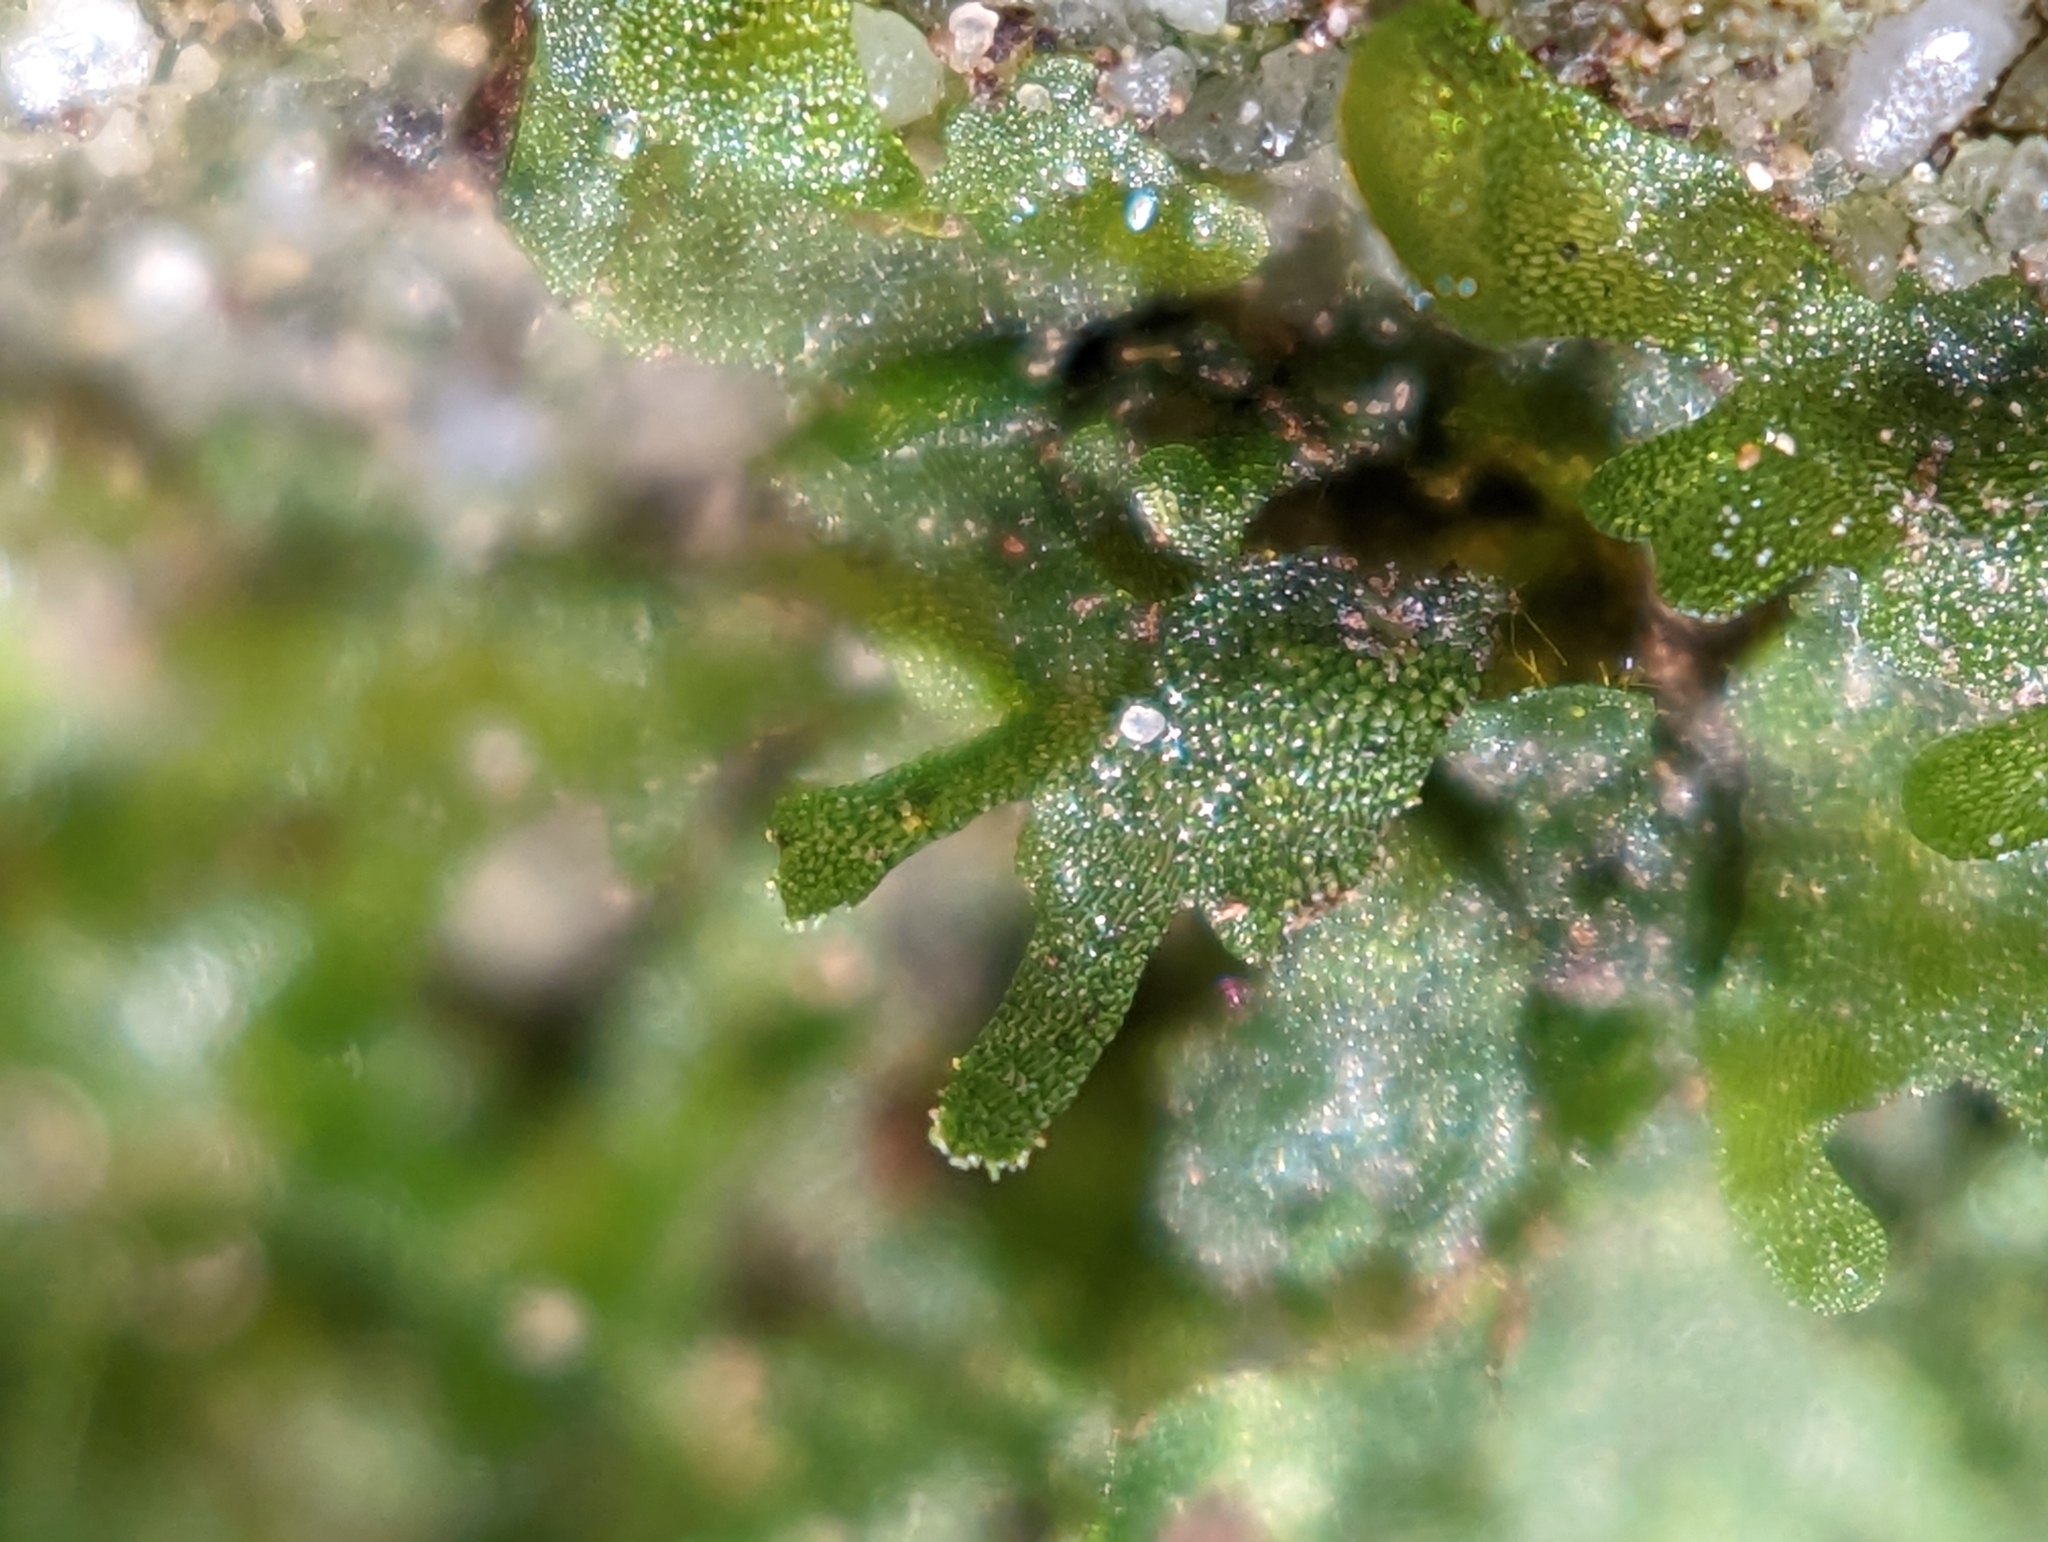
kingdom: Plantae
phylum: Tracheophyta
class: Polypodiopsida
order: Polypodiales
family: Pteridaceae
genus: Vittaria
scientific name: Vittaria appalachiana
